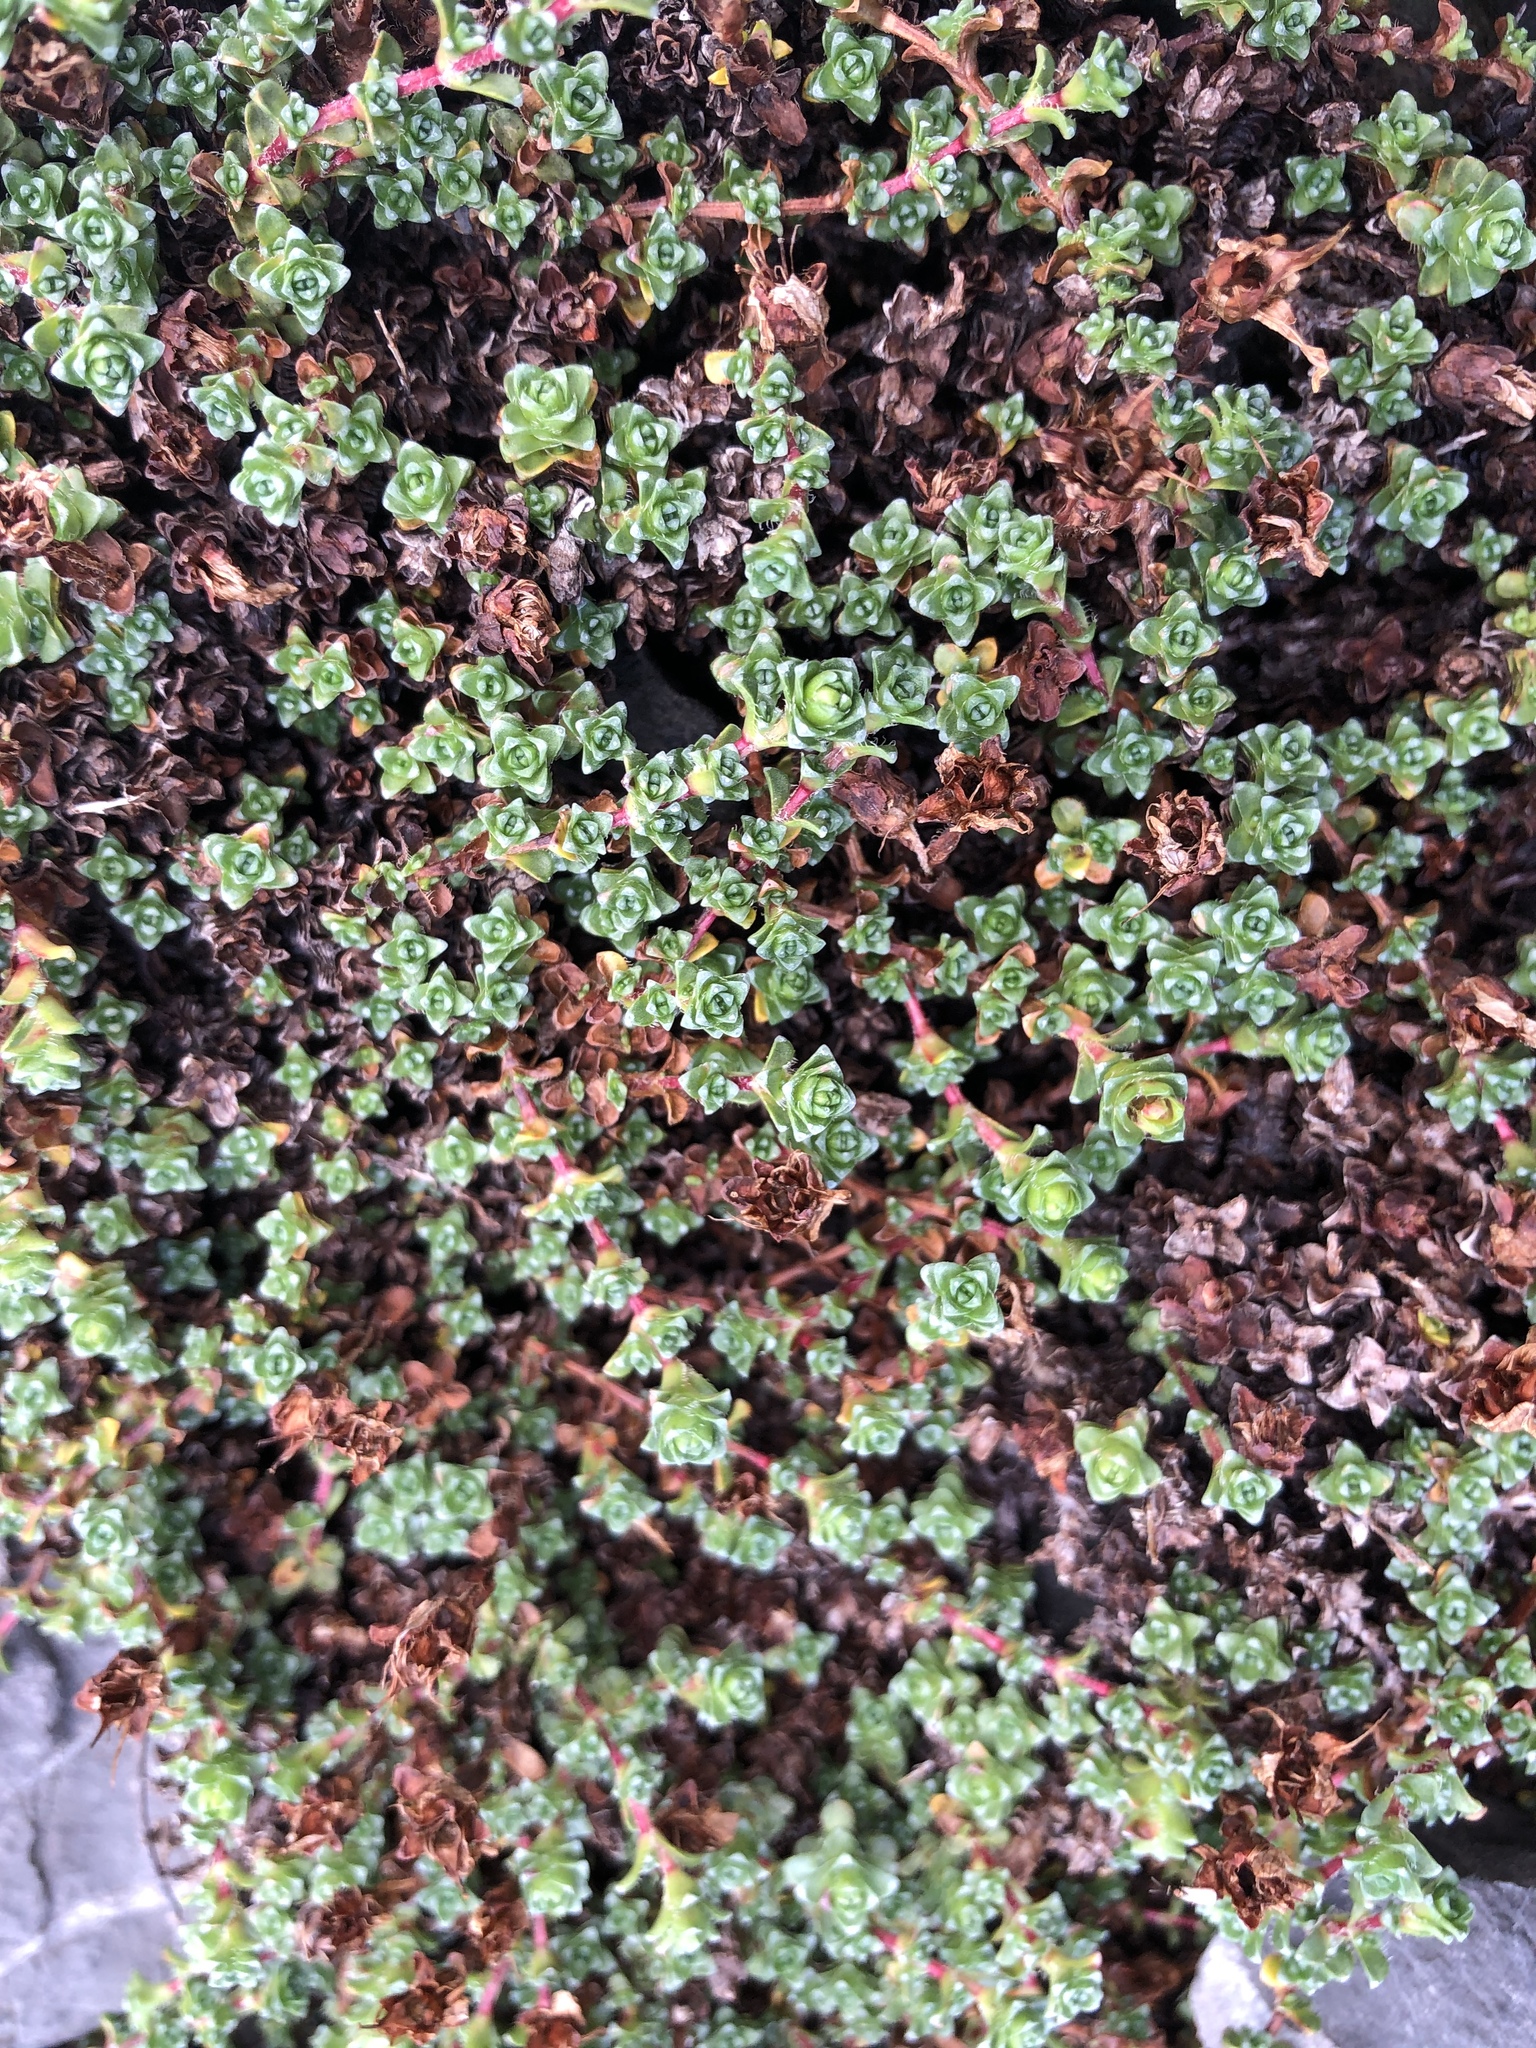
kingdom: Plantae
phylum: Tracheophyta
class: Magnoliopsida
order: Saxifragales
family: Saxifragaceae
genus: Saxifraga
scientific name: Saxifraga oppositifolia
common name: Purple saxifrage
